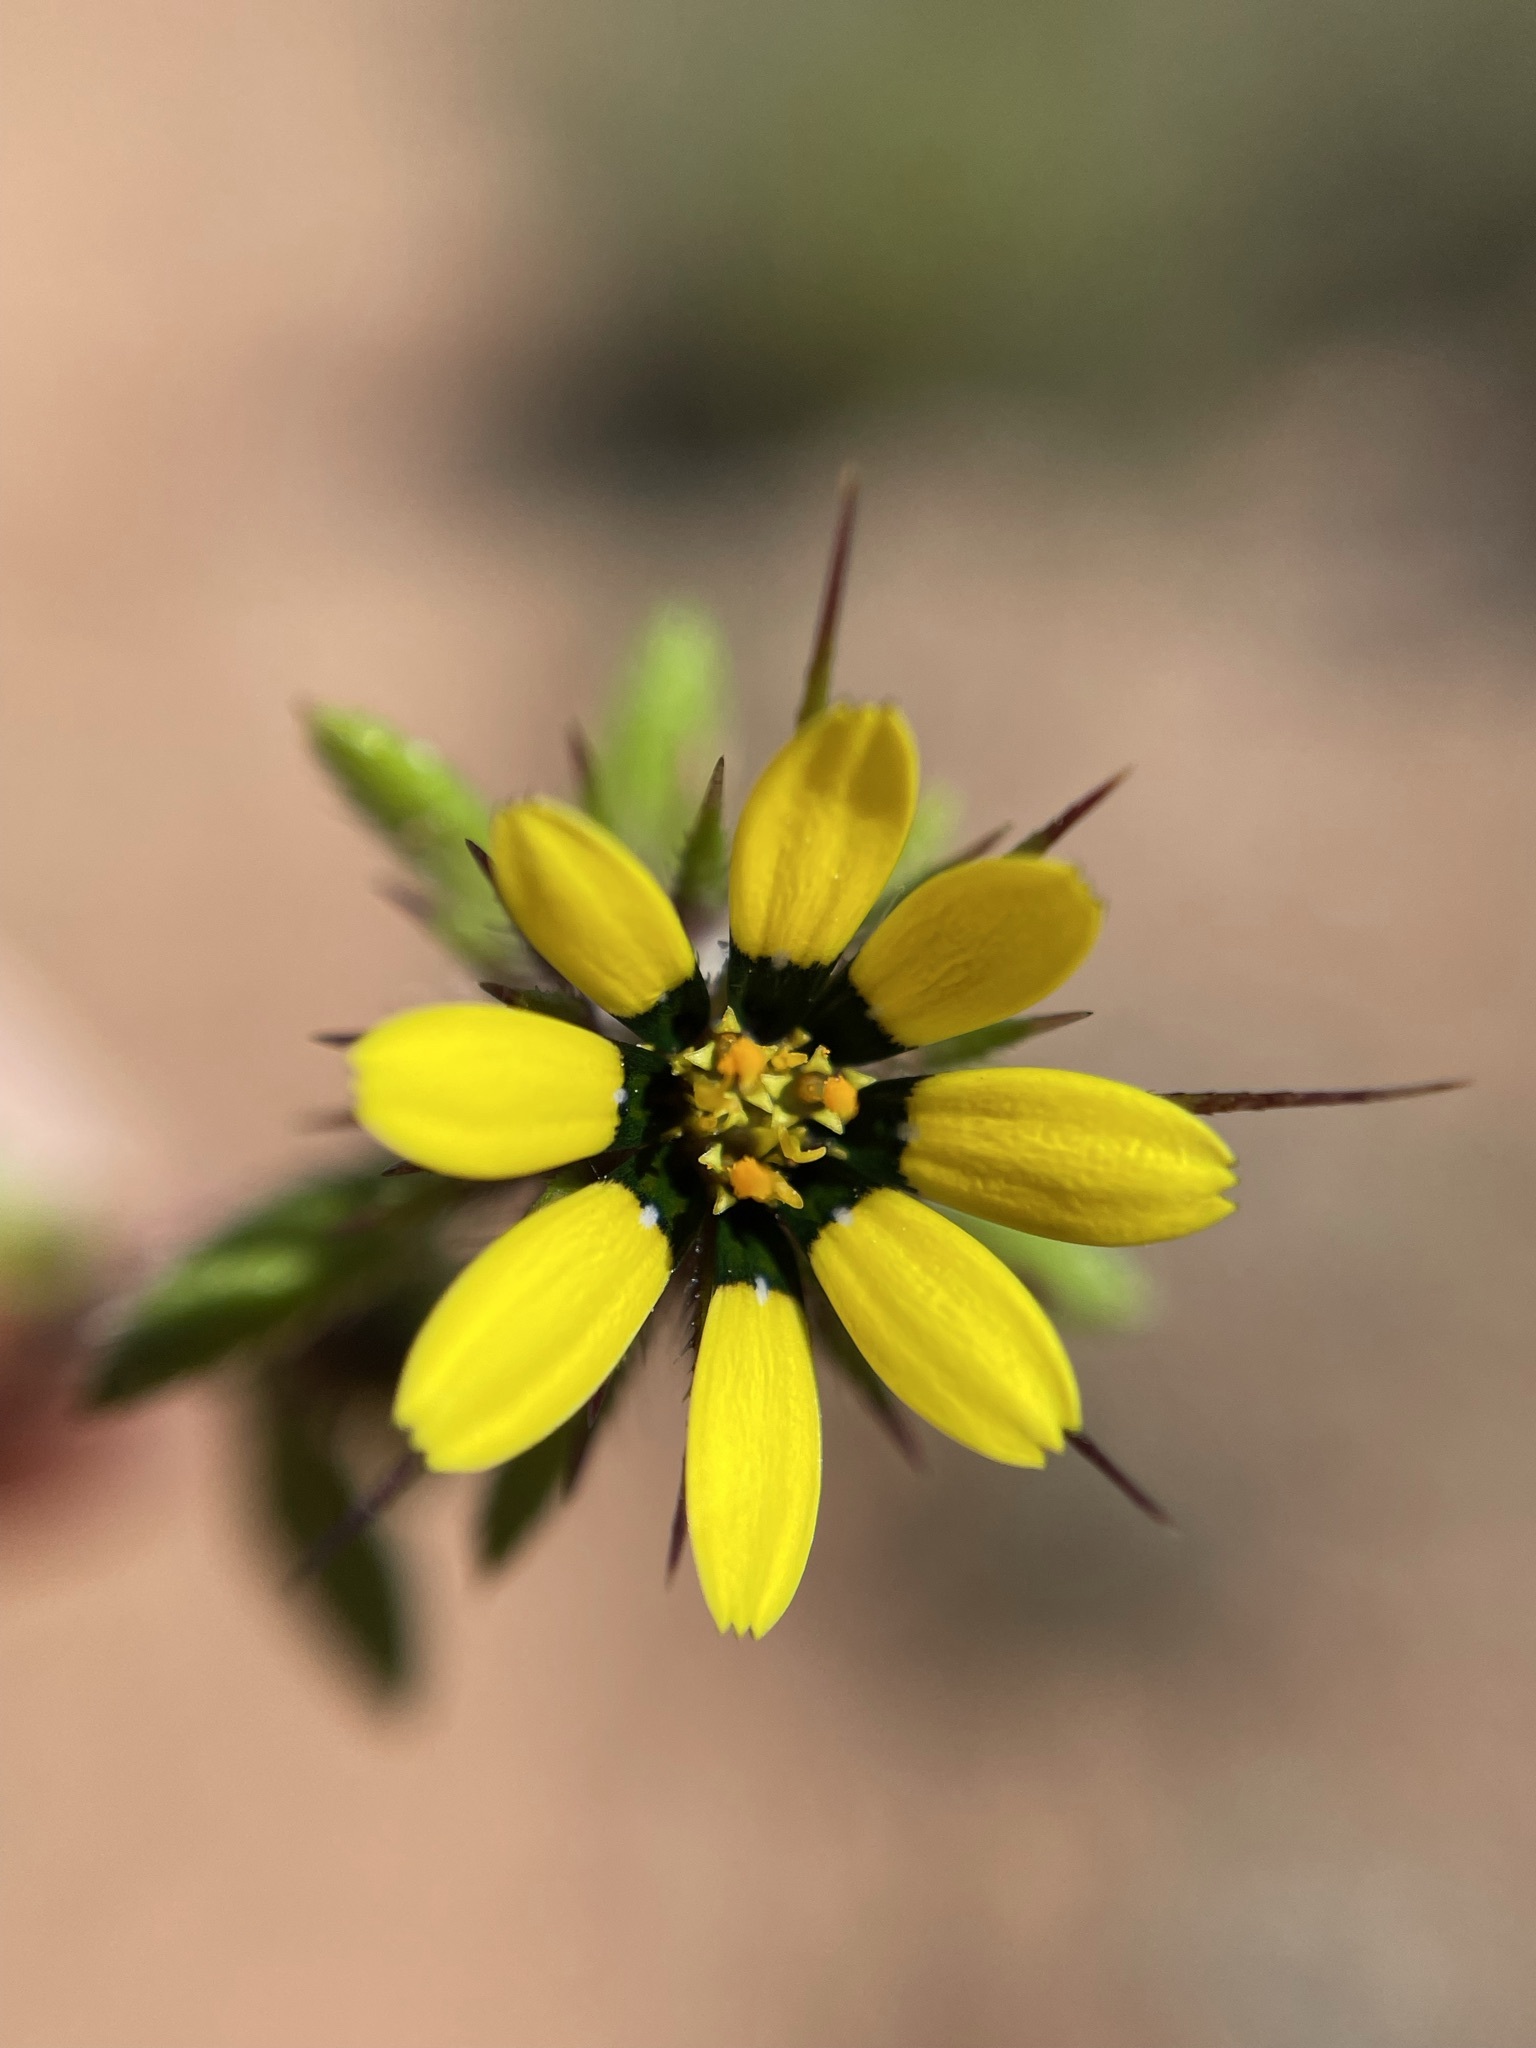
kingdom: Plantae
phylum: Tracheophyta
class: Magnoliopsida
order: Asterales
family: Asteraceae
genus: Gorteria
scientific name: Gorteria personata
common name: Gorteria
